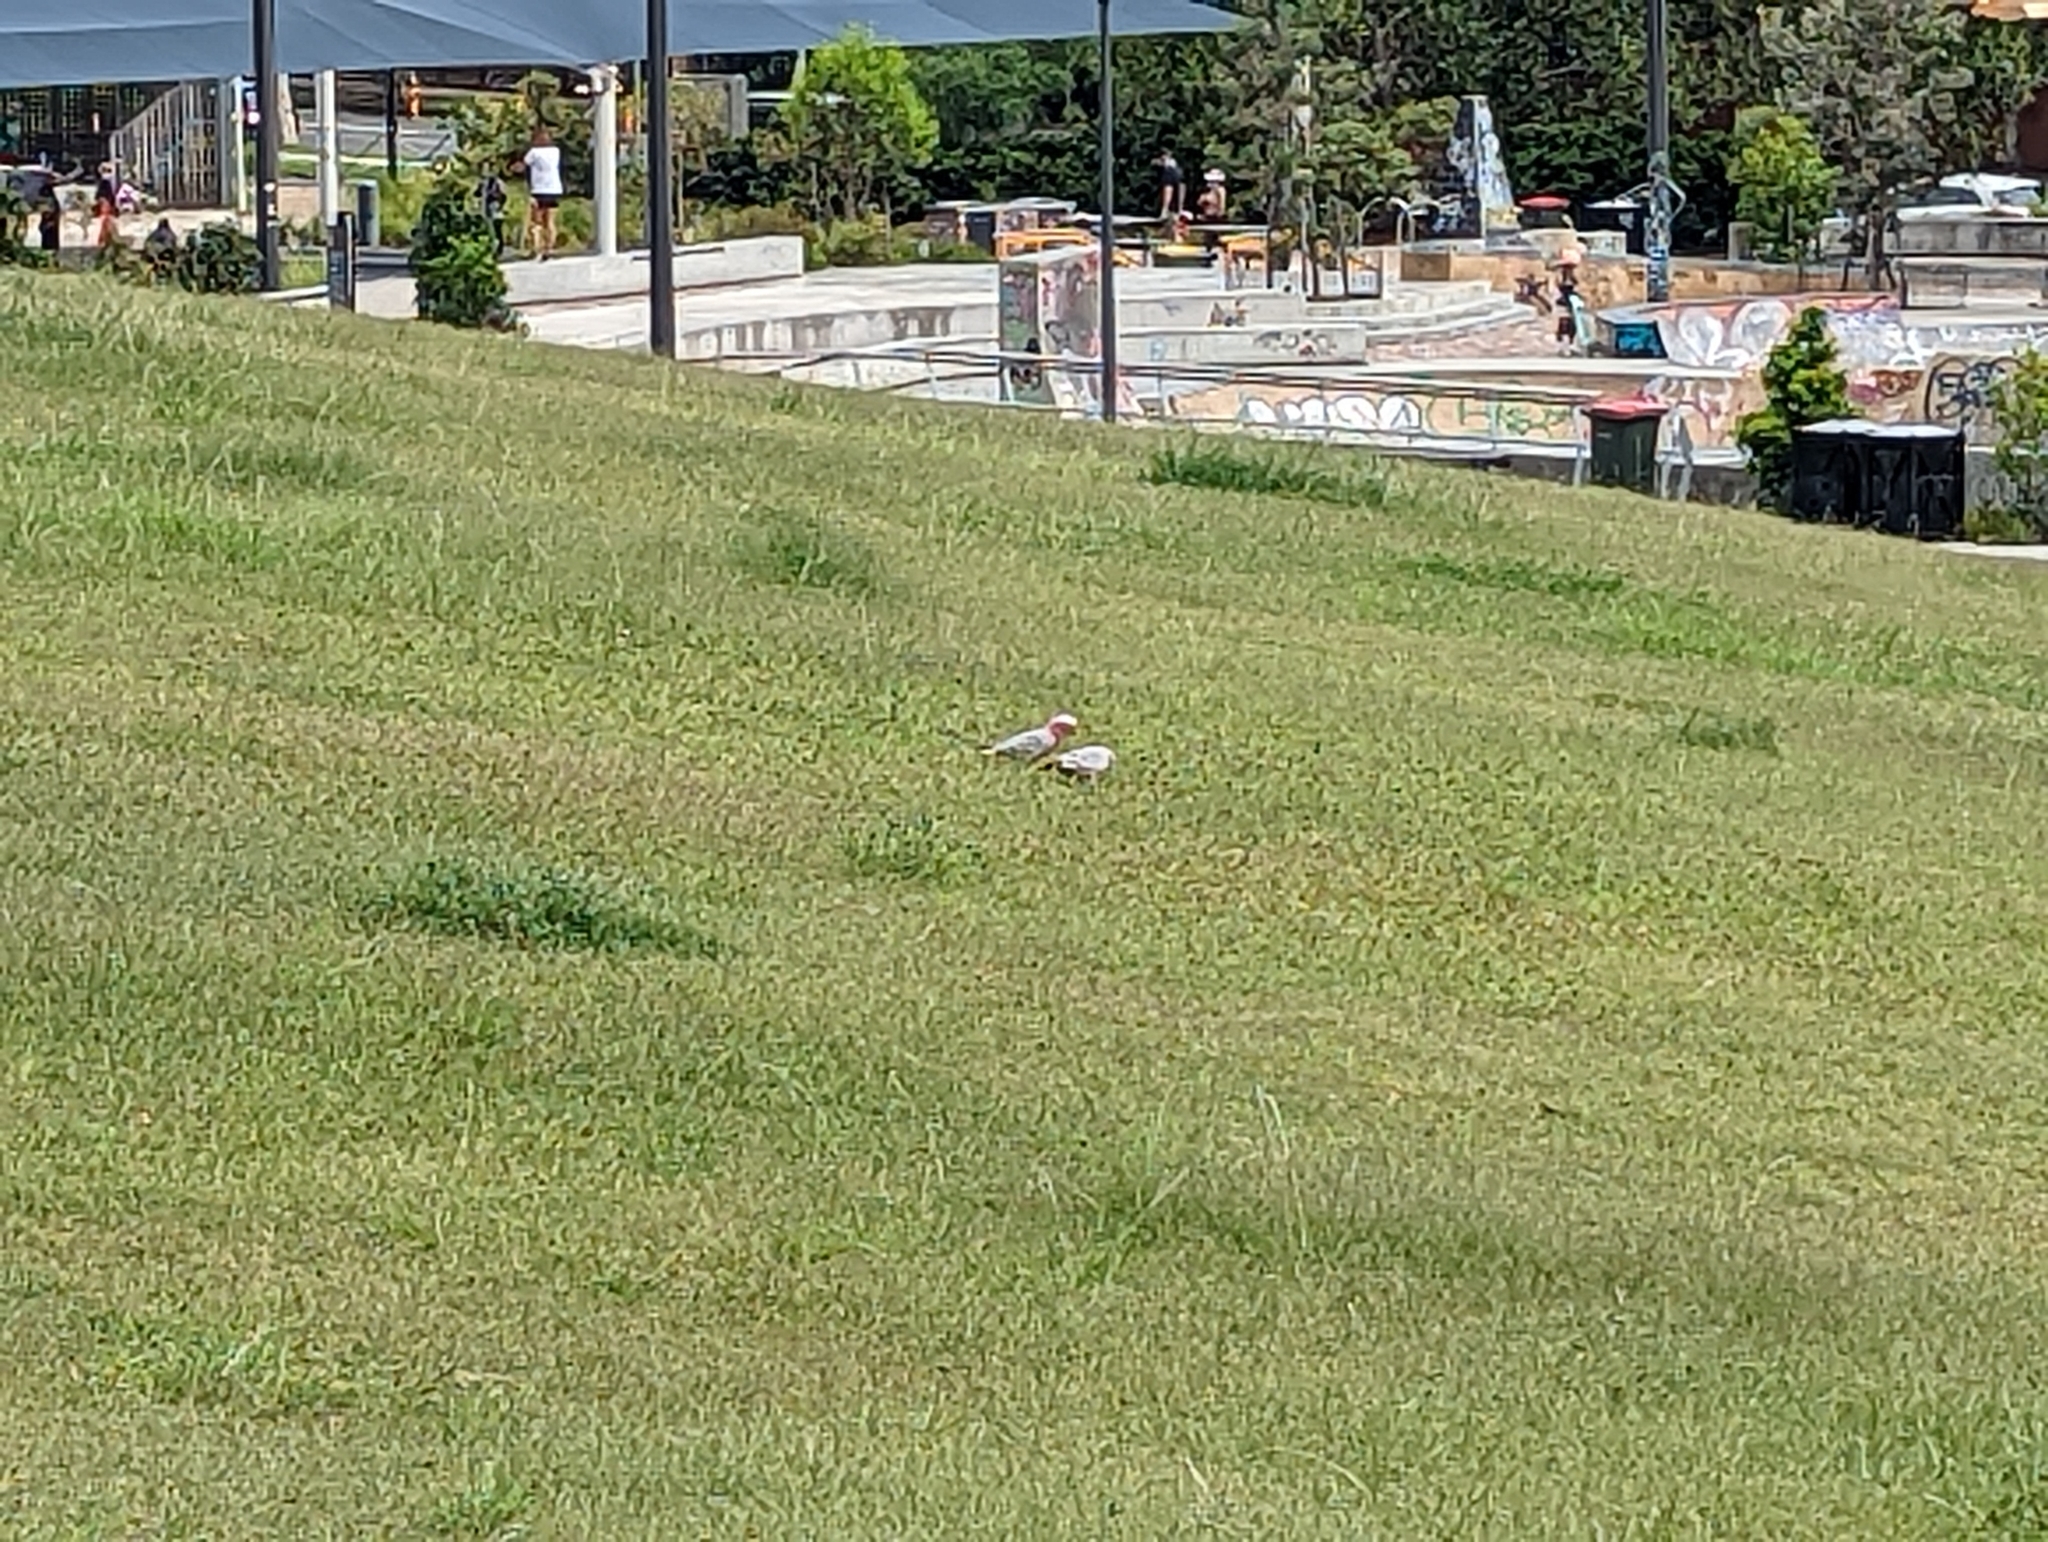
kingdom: Animalia
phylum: Chordata
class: Aves
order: Psittaciformes
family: Psittacidae
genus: Eolophus
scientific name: Eolophus roseicapilla
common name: Galah
